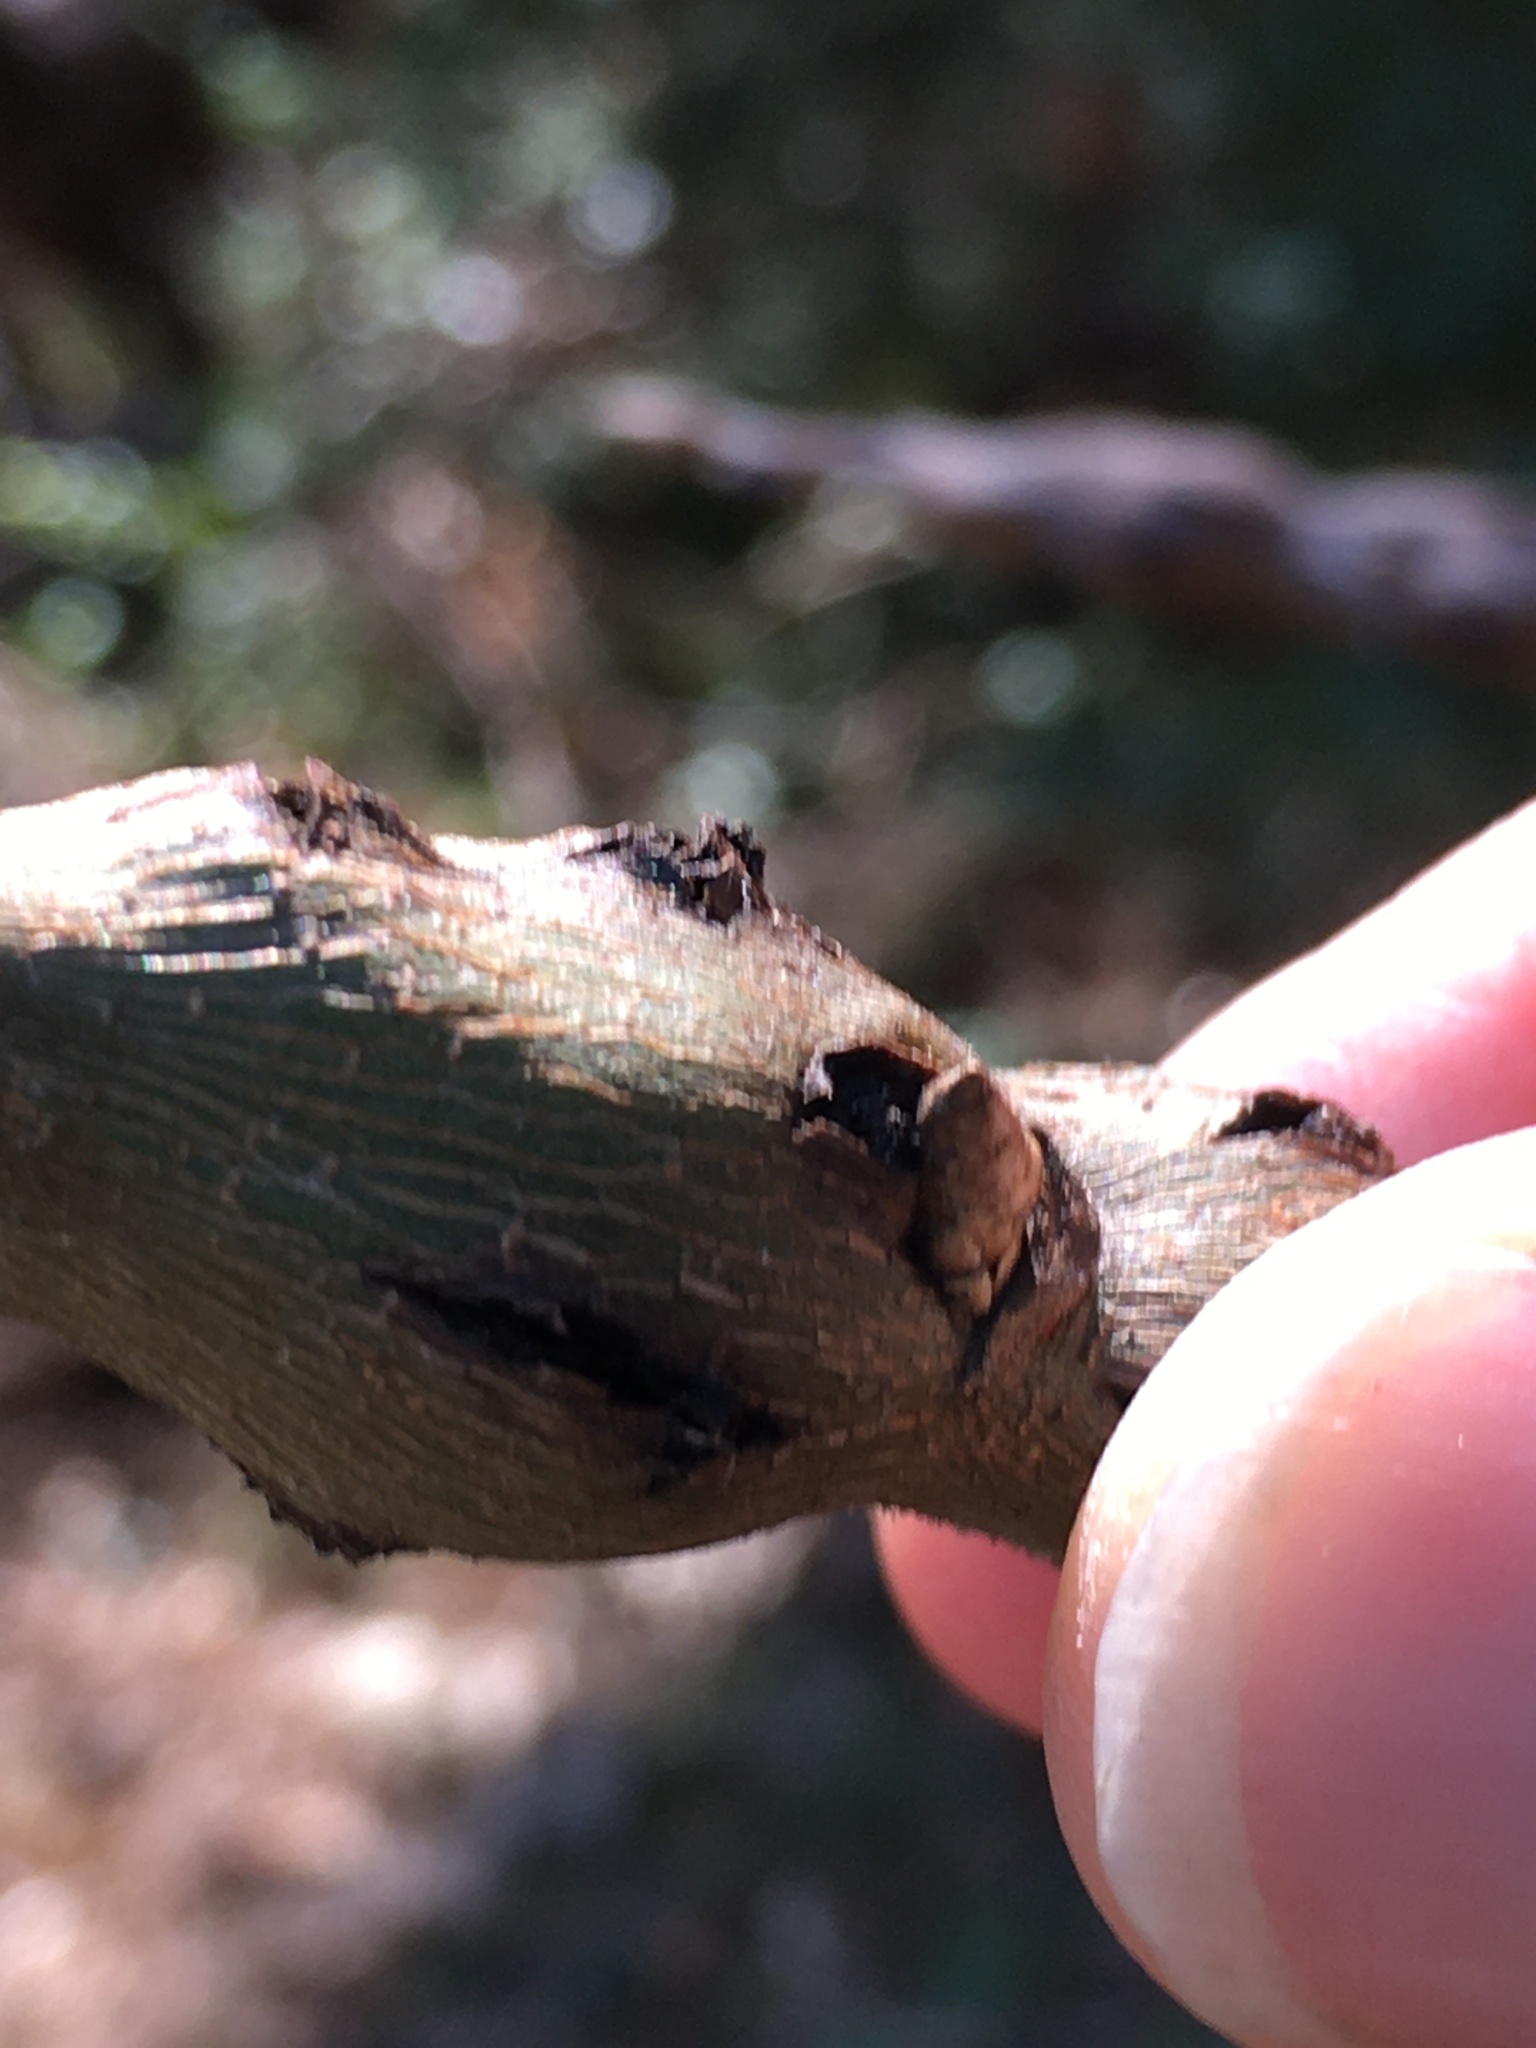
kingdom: Animalia
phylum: Arthropoda
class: Insecta
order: Hymenoptera
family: Cynipidae
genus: Callirhytis
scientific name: Callirhytis
